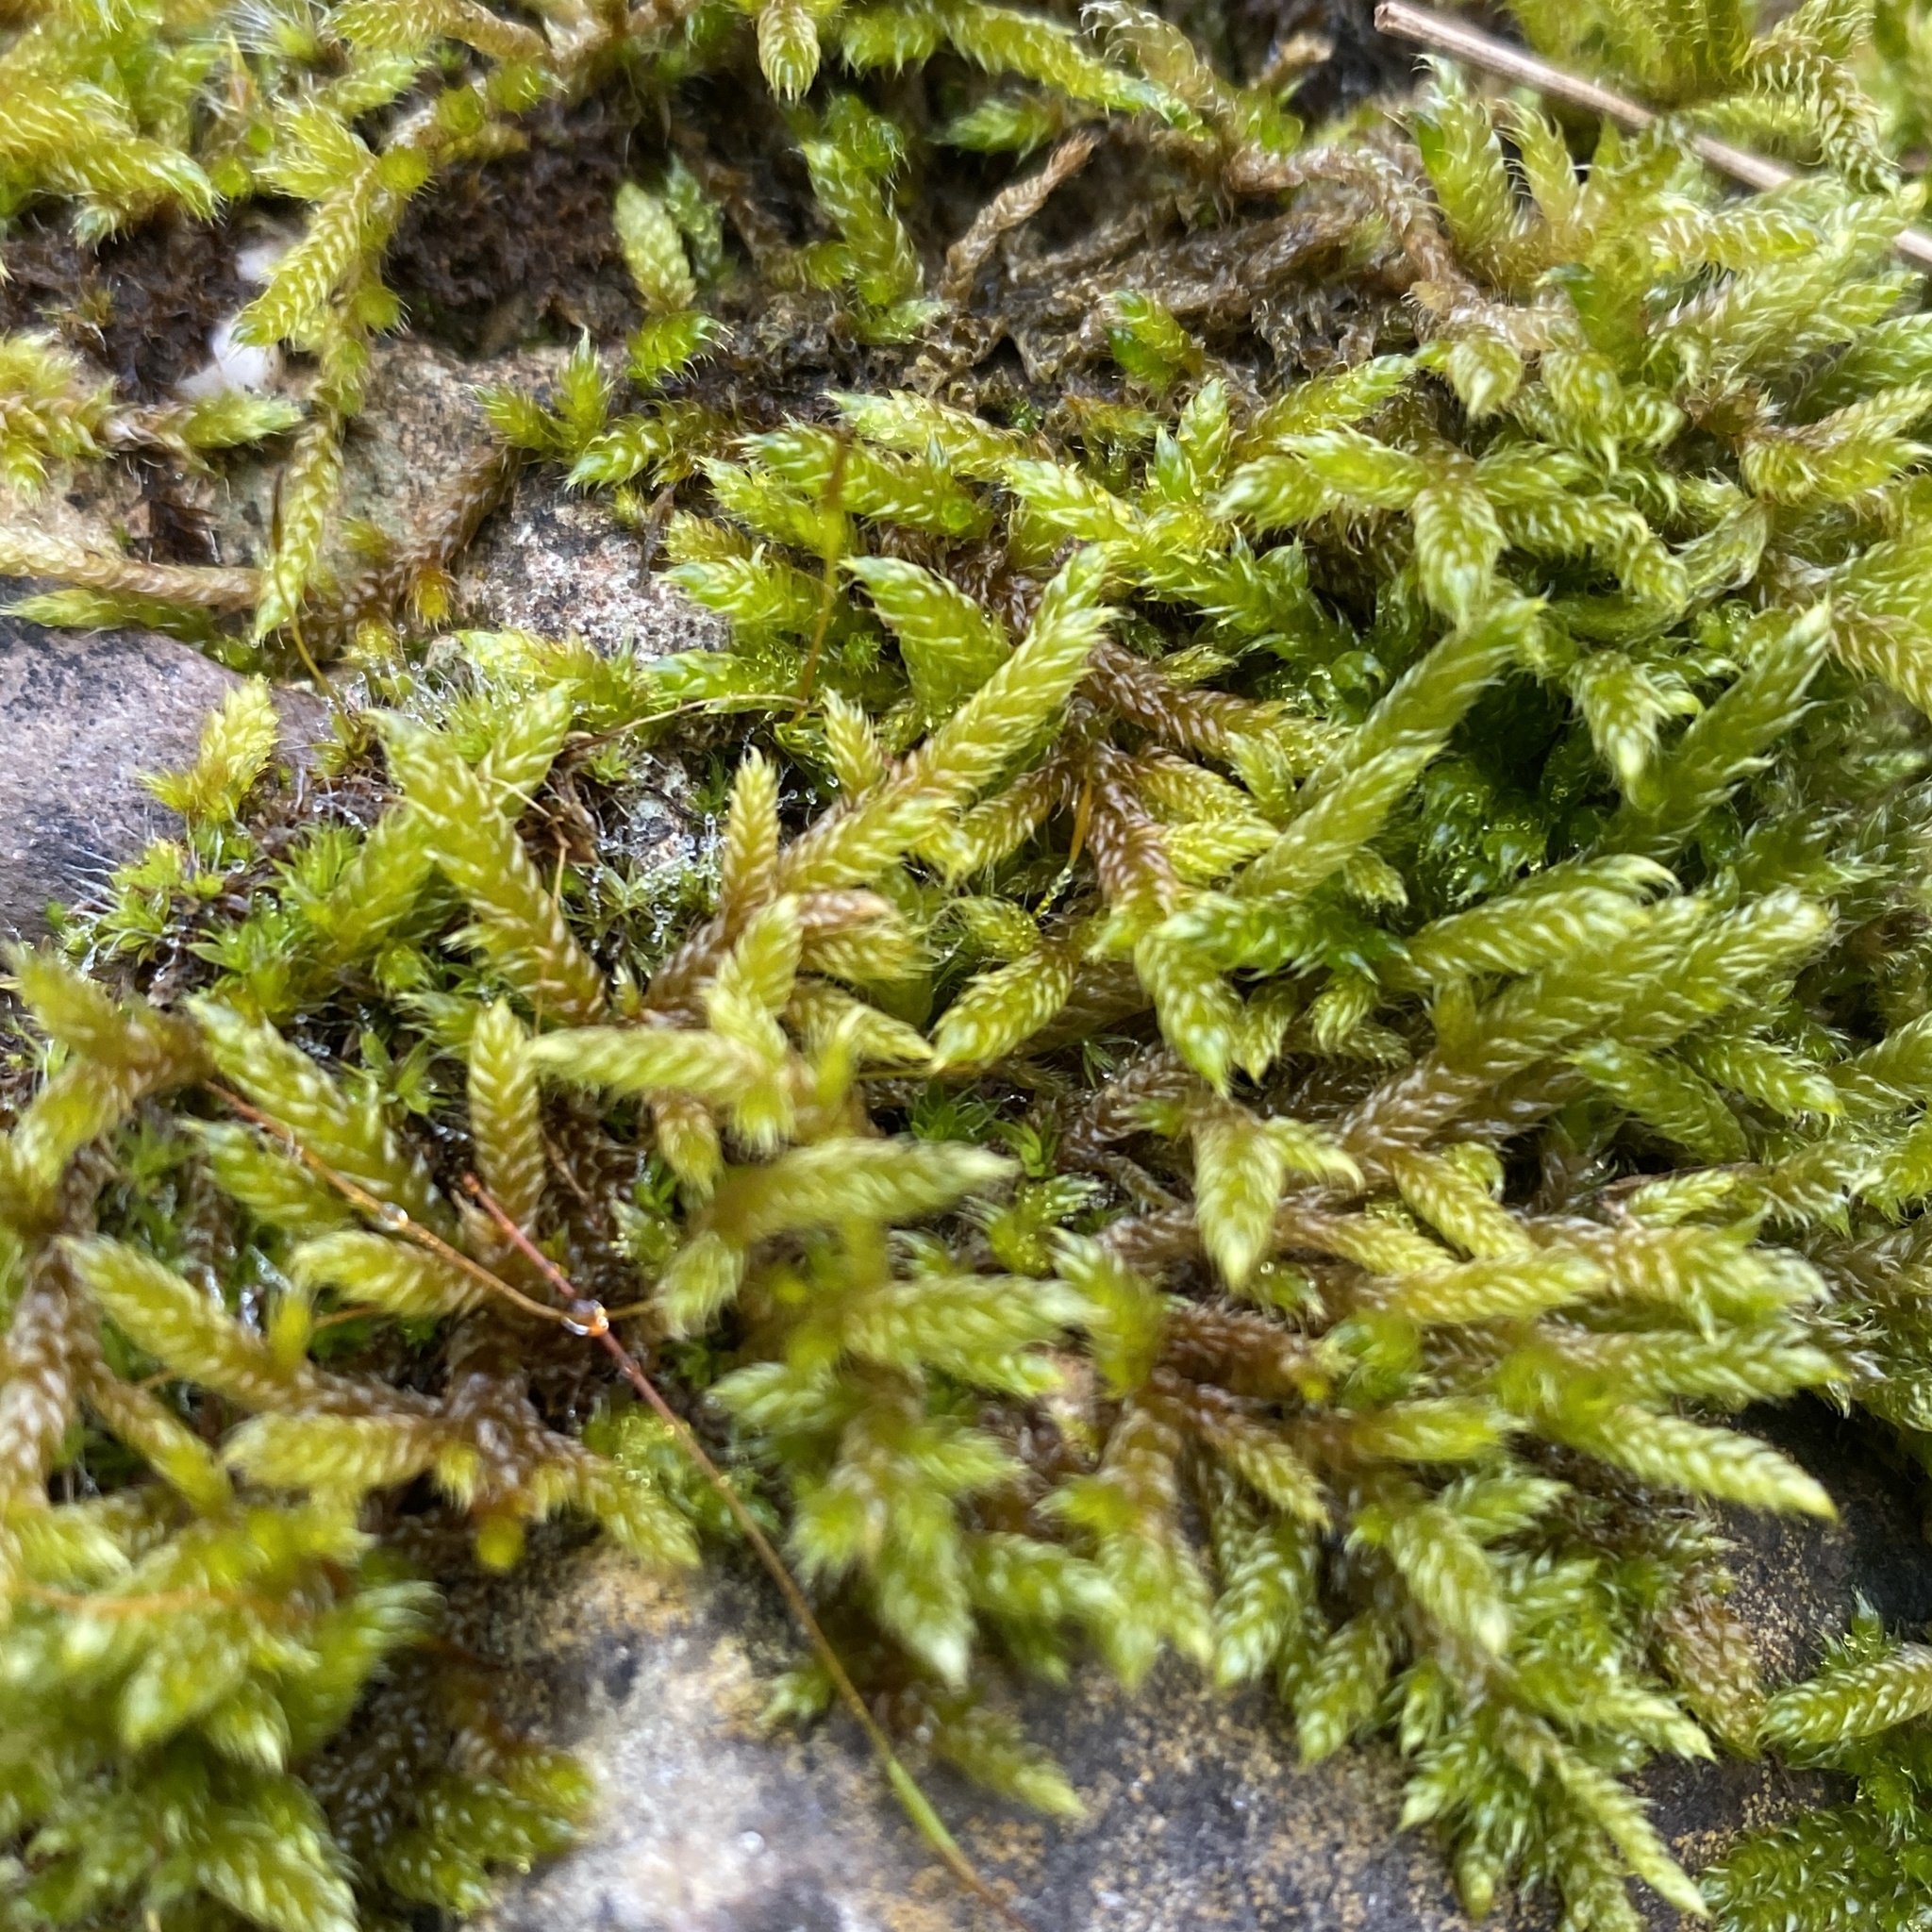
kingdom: Plantae
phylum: Bryophyta
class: Bryopsida
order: Hypnales
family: Hypnaceae
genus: Hypnum
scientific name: Hypnum cupressiforme
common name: Cypress-leaved plait-moss
